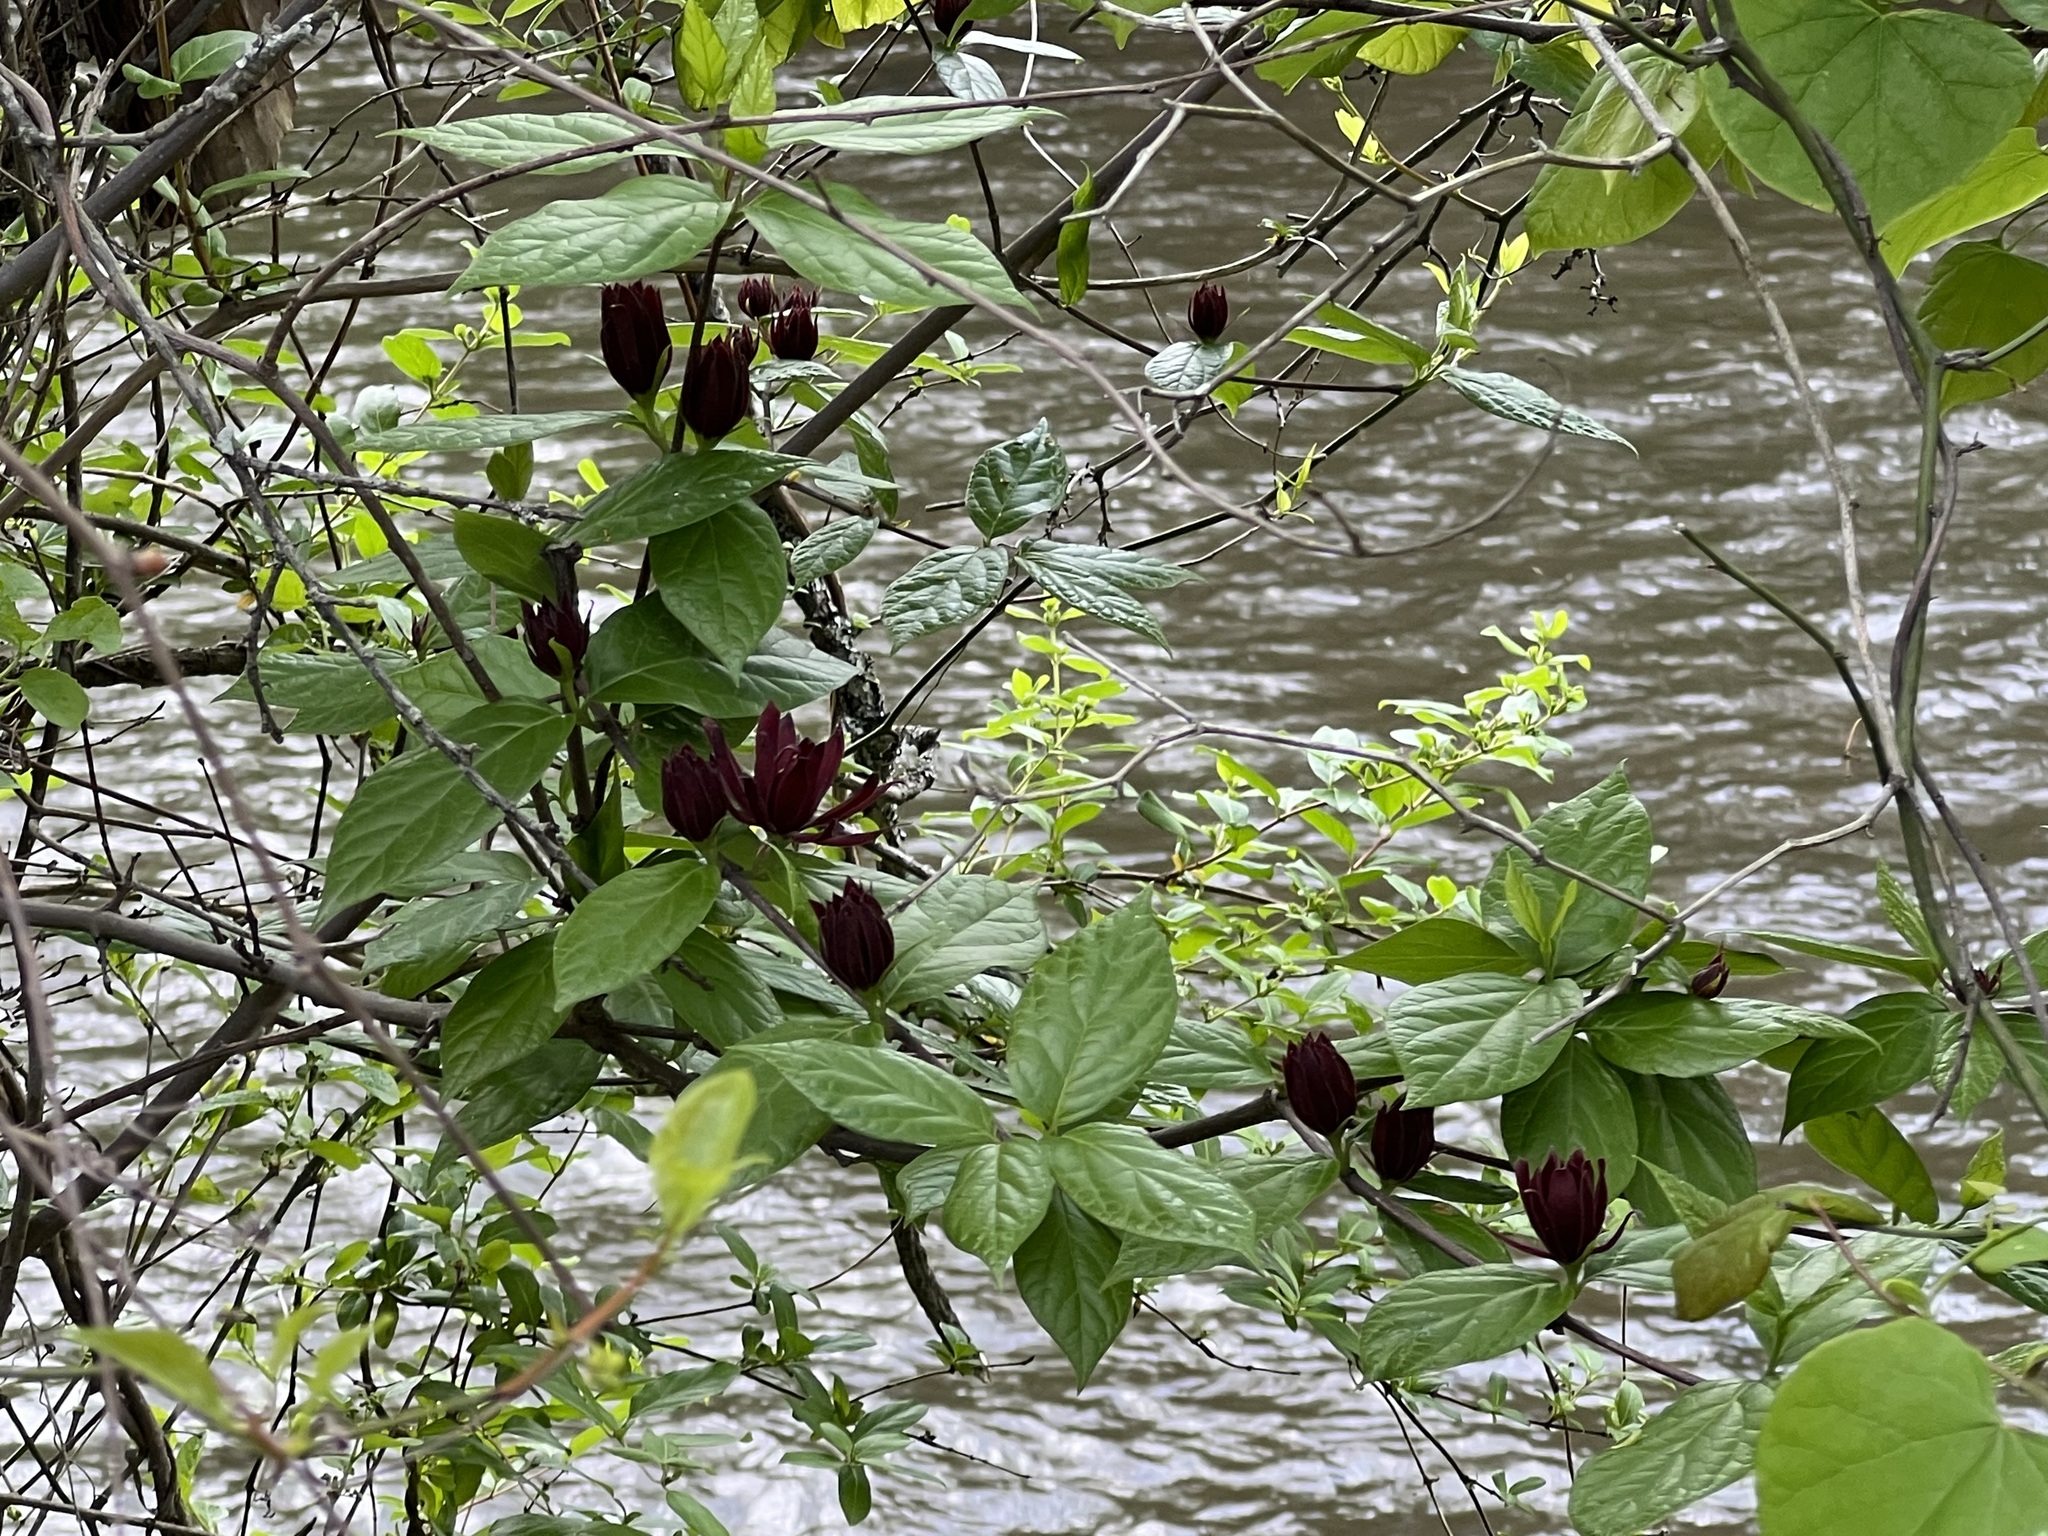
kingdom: Plantae
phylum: Tracheophyta
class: Magnoliopsida
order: Laurales
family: Calycanthaceae
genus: Calycanthus
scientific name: Calycanthus floridus
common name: Carolina-allspice
